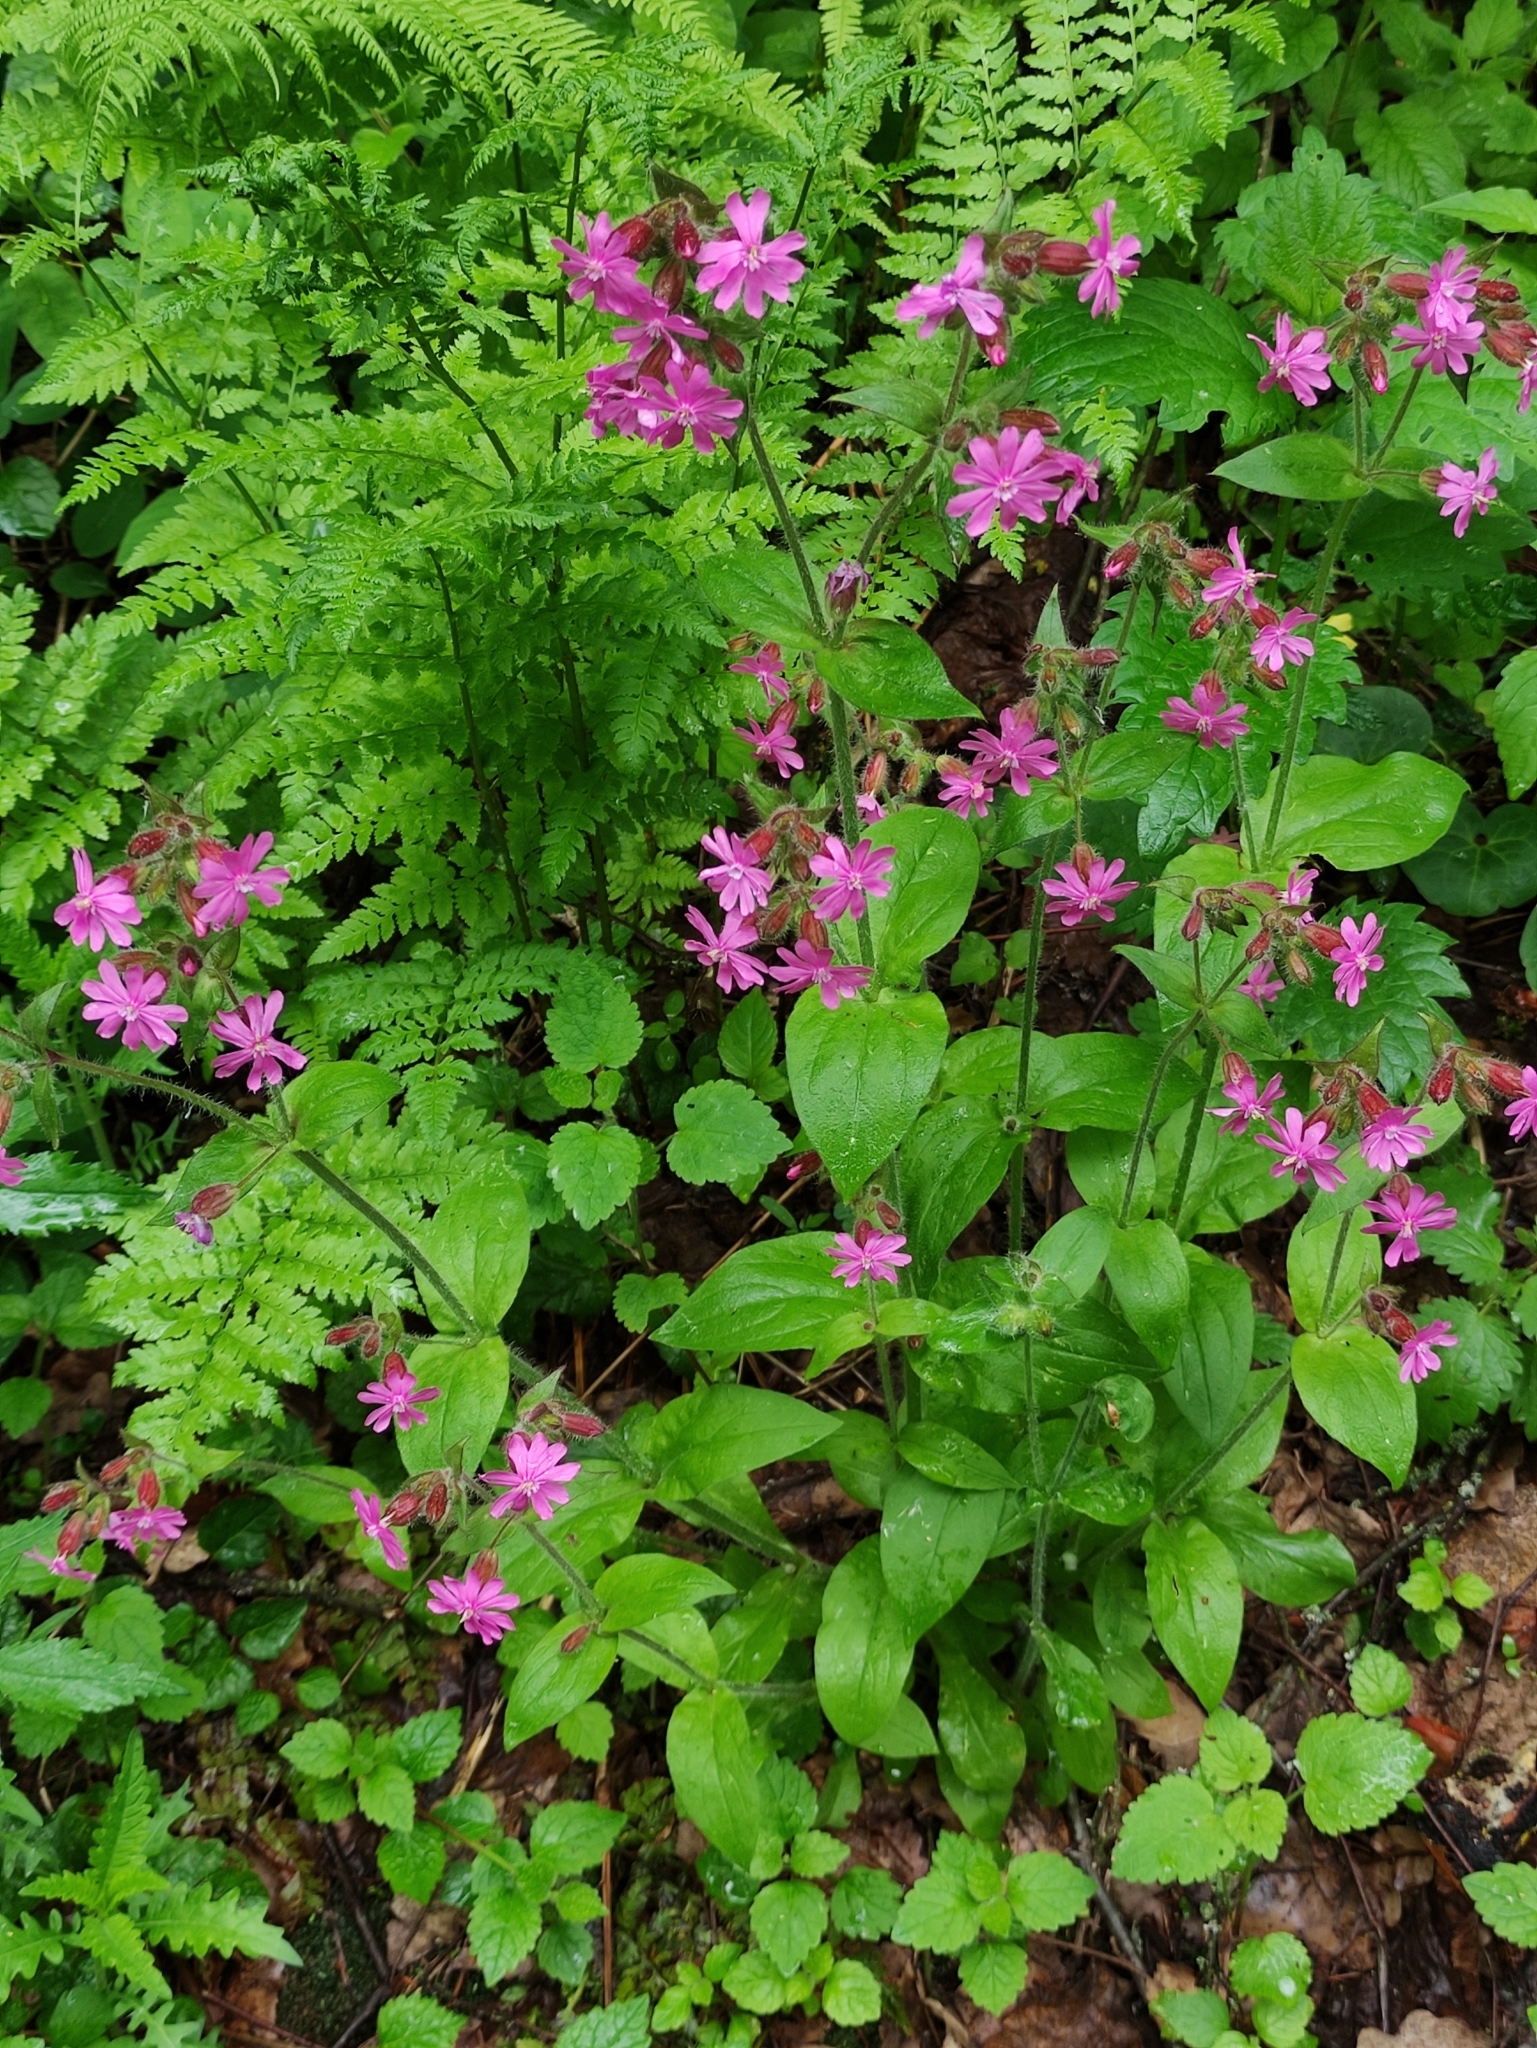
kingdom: Plantae
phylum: Tracheophyta
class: Magnoliopsida
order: Caryophyllales
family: Caryophyllaceae
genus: Silene
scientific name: Silene dioica
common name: Red campion
